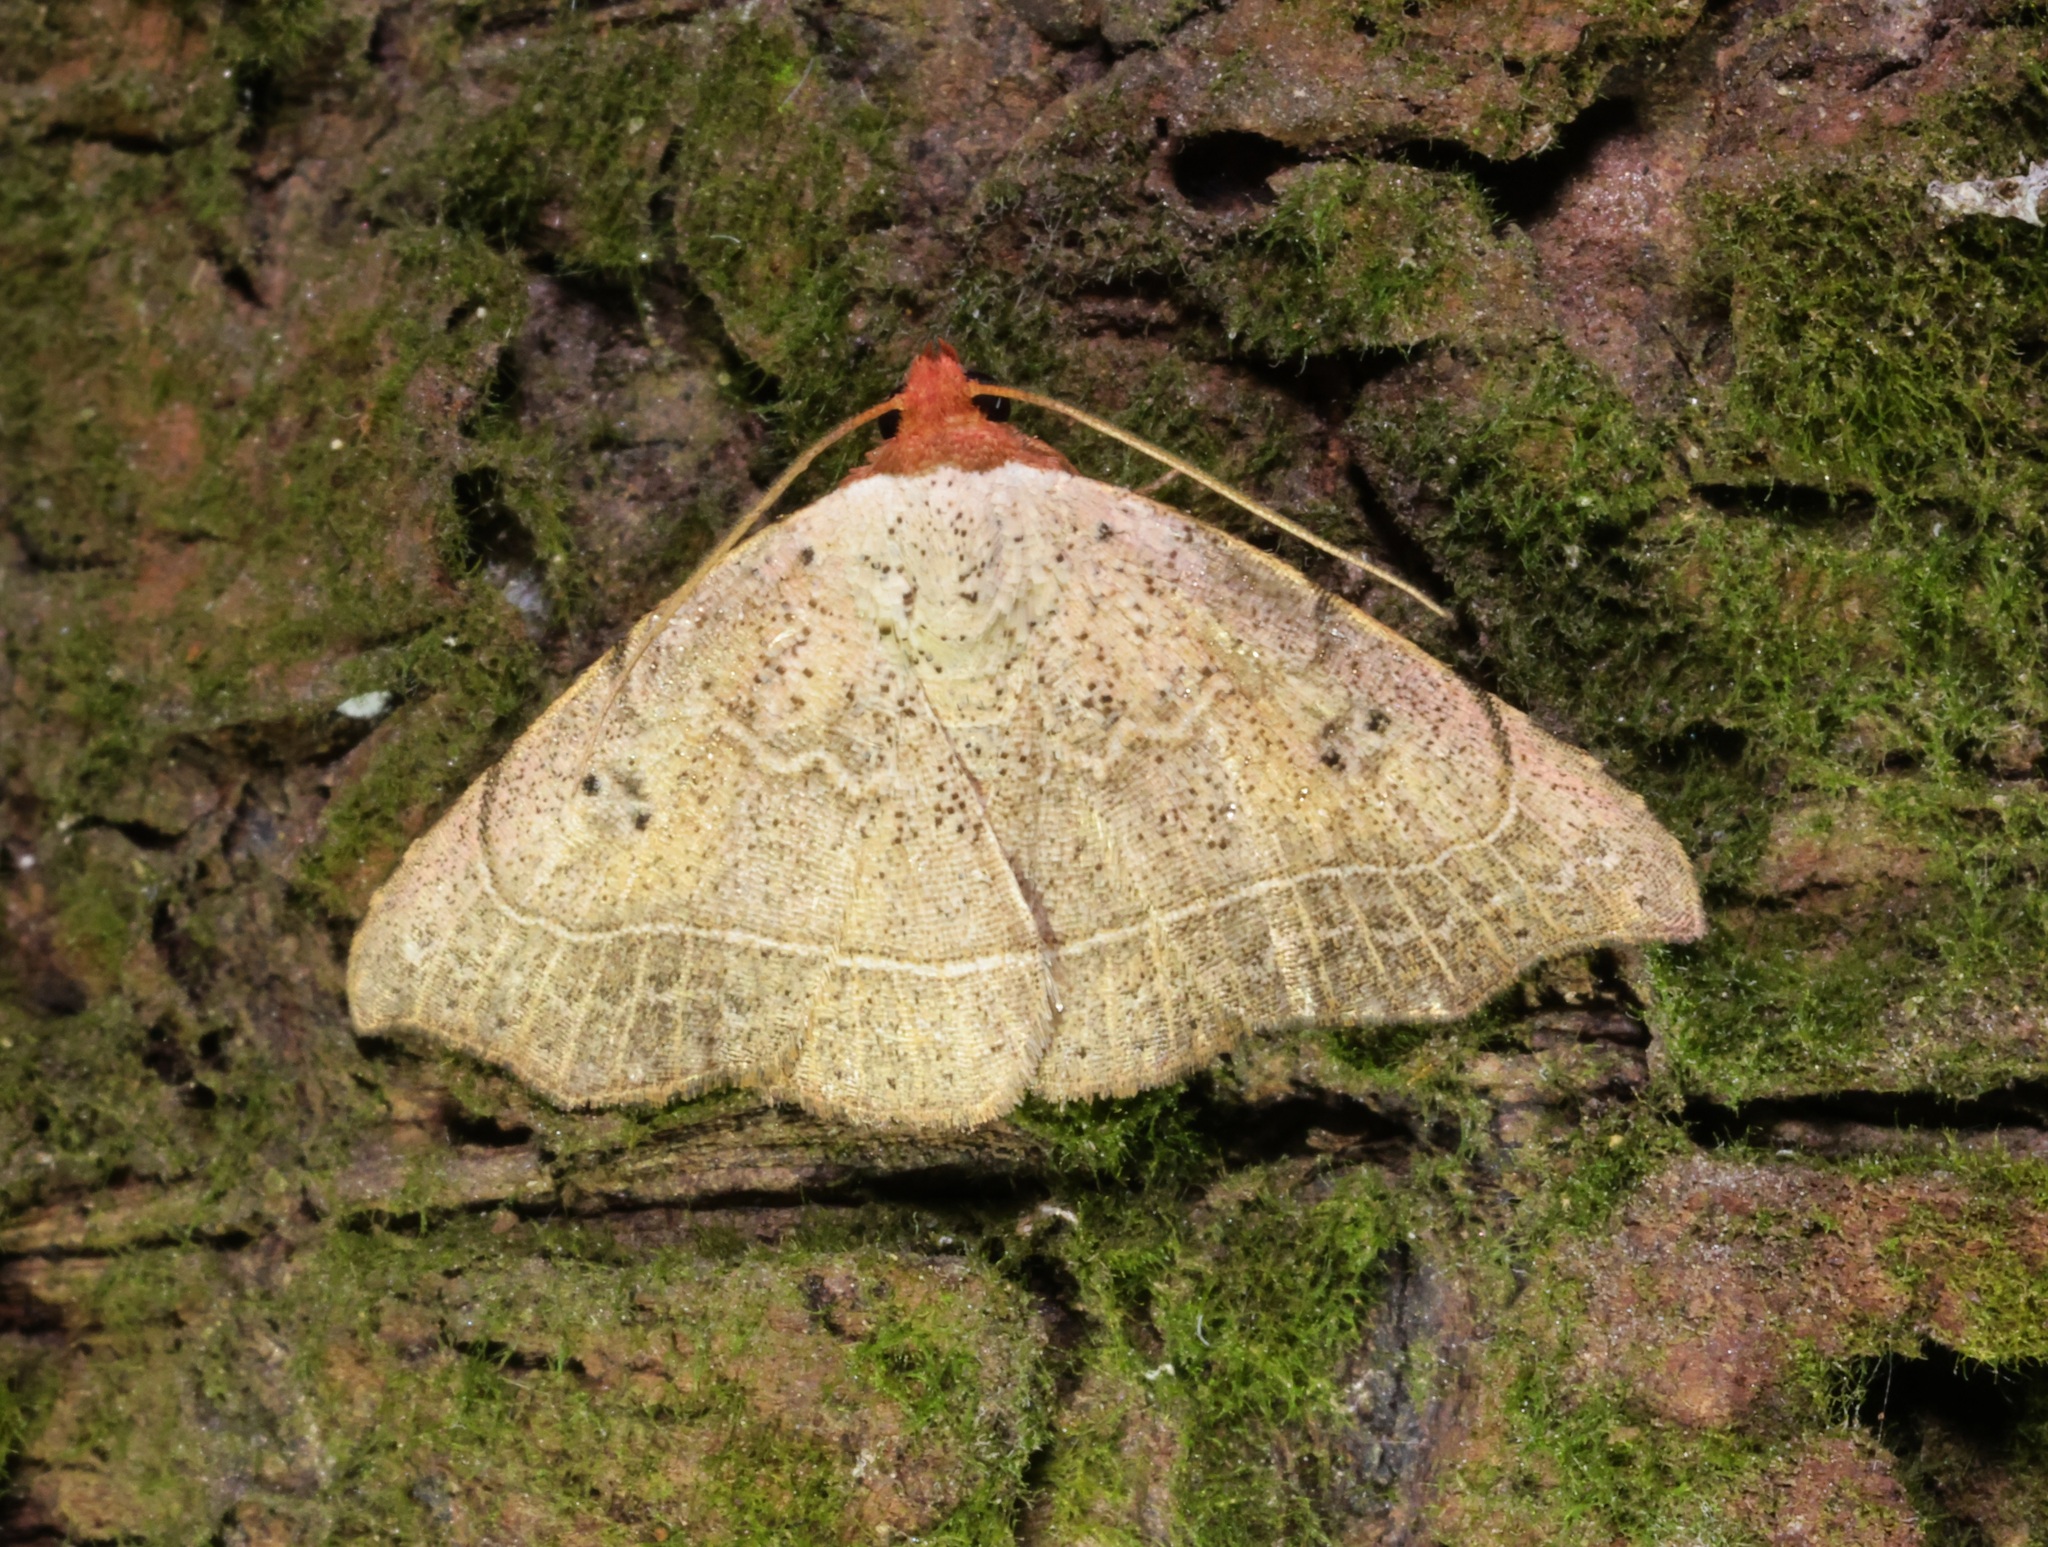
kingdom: Animalia
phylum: Arthropoda
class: Insecta
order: Lepidoptera
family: Erebidae
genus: Laspeyria
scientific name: Laspeyria ruficeps
